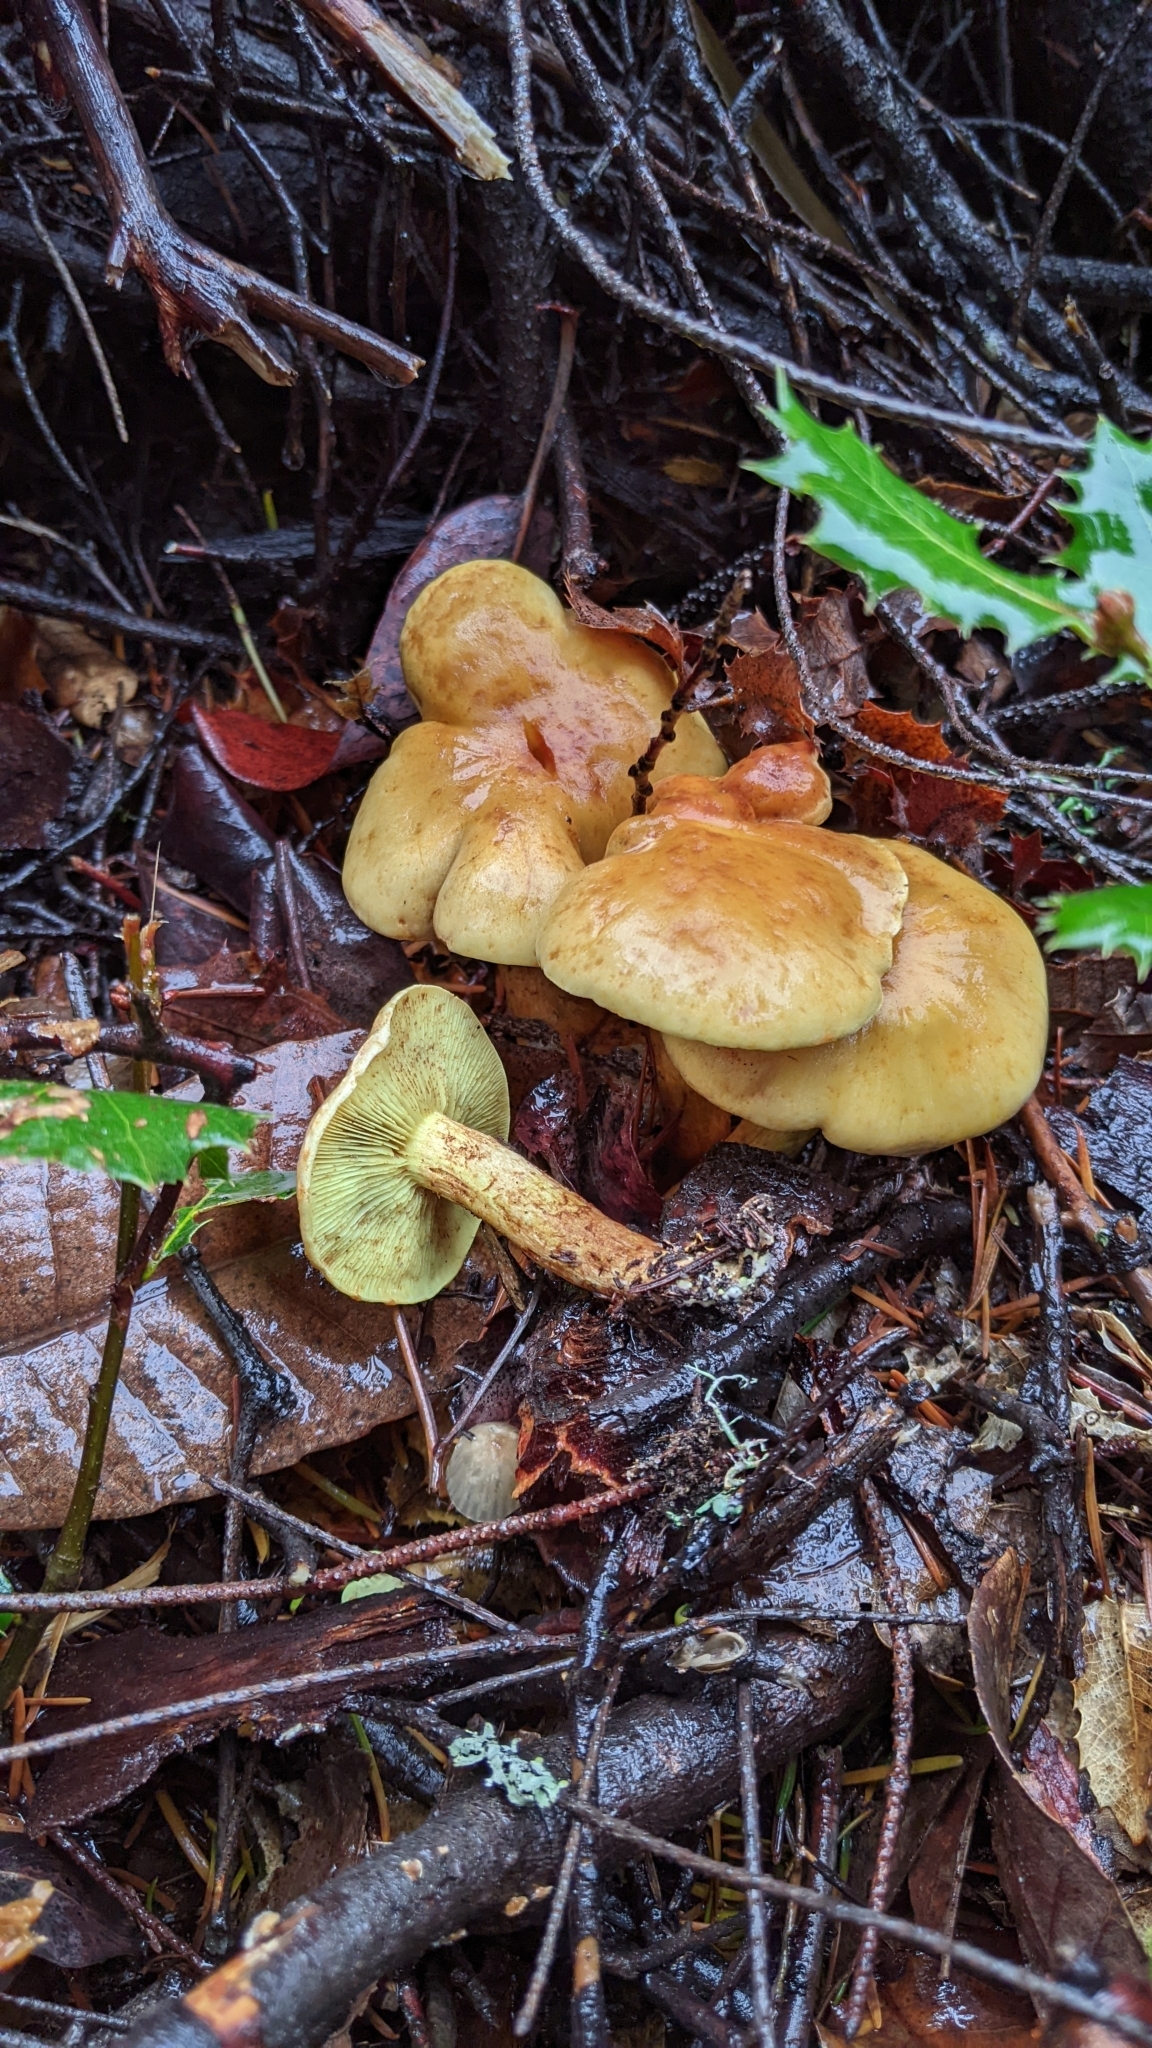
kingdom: Fungi
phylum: Basidiomycota
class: Agaricomycetes
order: Agaricales
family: Strophariaceae
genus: Hypholoma
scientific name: Hypholoma fasciculare
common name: Sulphur tuft
